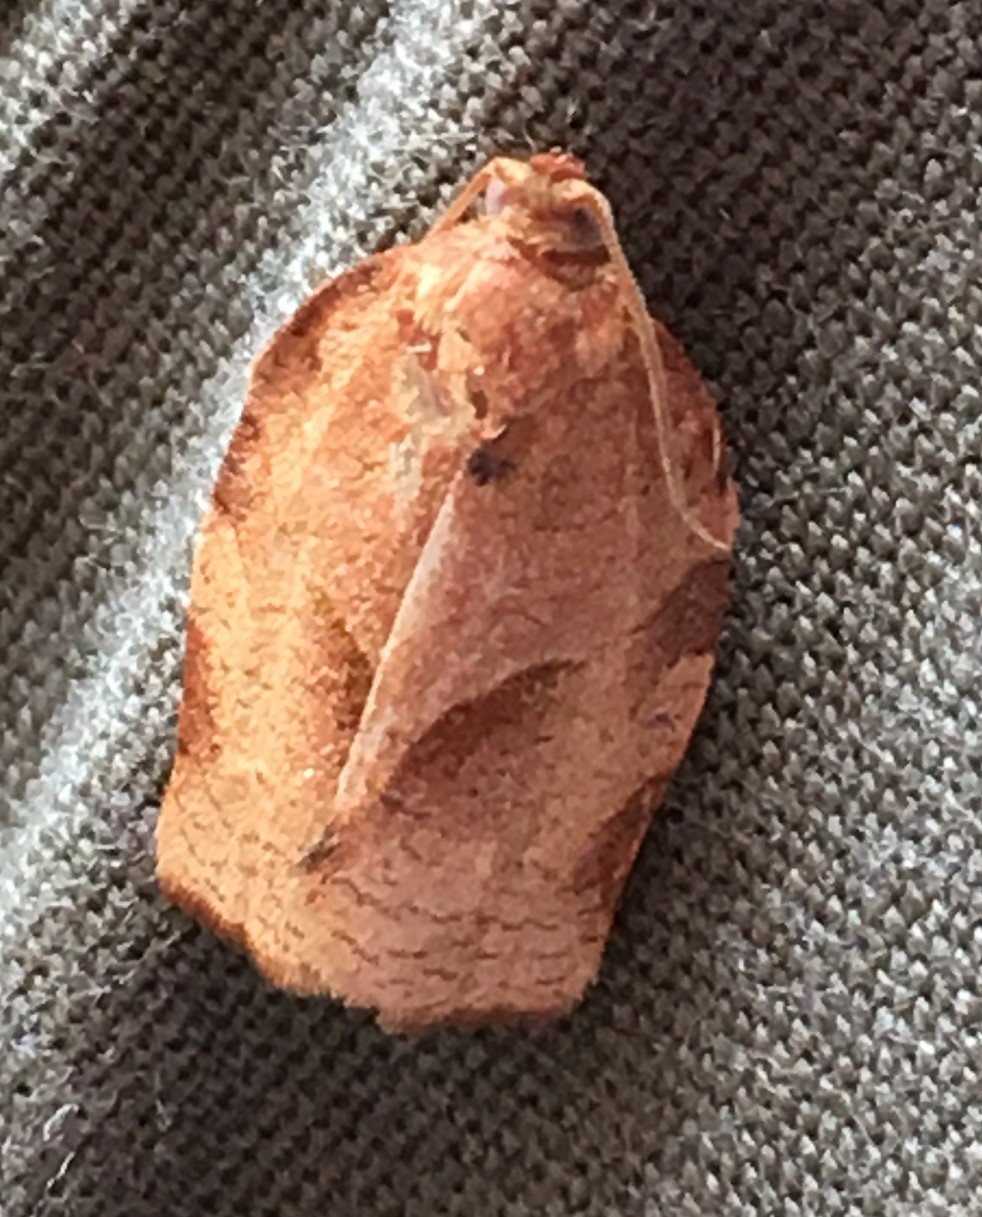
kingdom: Animalia
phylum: Arthropoda
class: Insecta
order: Lepidoptera
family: Tortricidae
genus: Choristoneura
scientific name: Choristoneura rosaceana
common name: Oblique-banded leafroller moth
